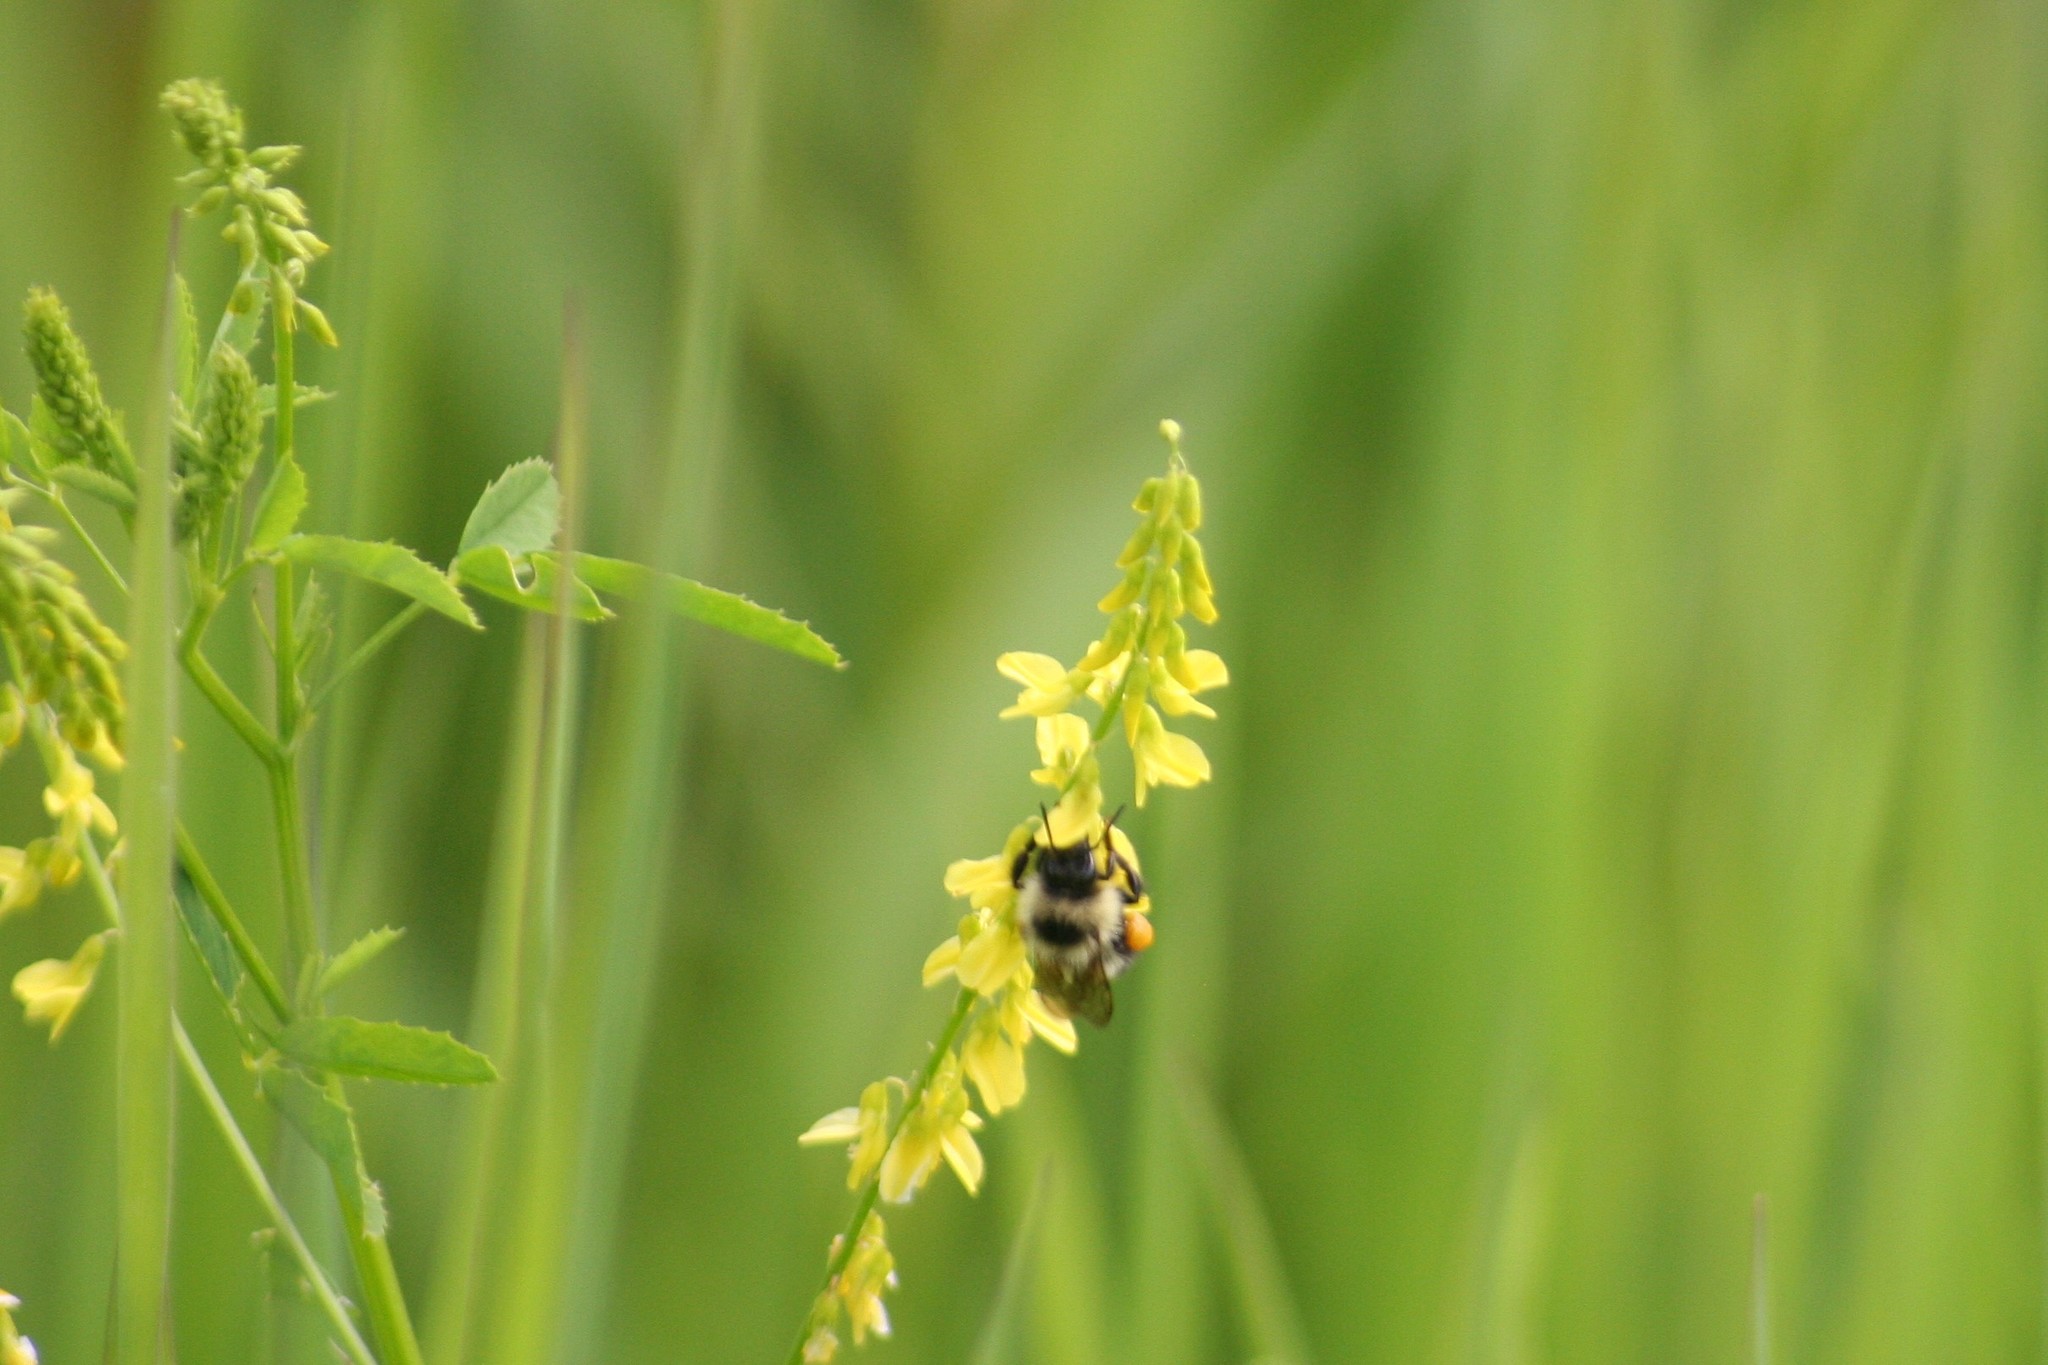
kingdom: Animalia
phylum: Arthropoda
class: Insecta
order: Hymenoptera
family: Apidae
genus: Pyrobombus
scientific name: Pyrobombus
